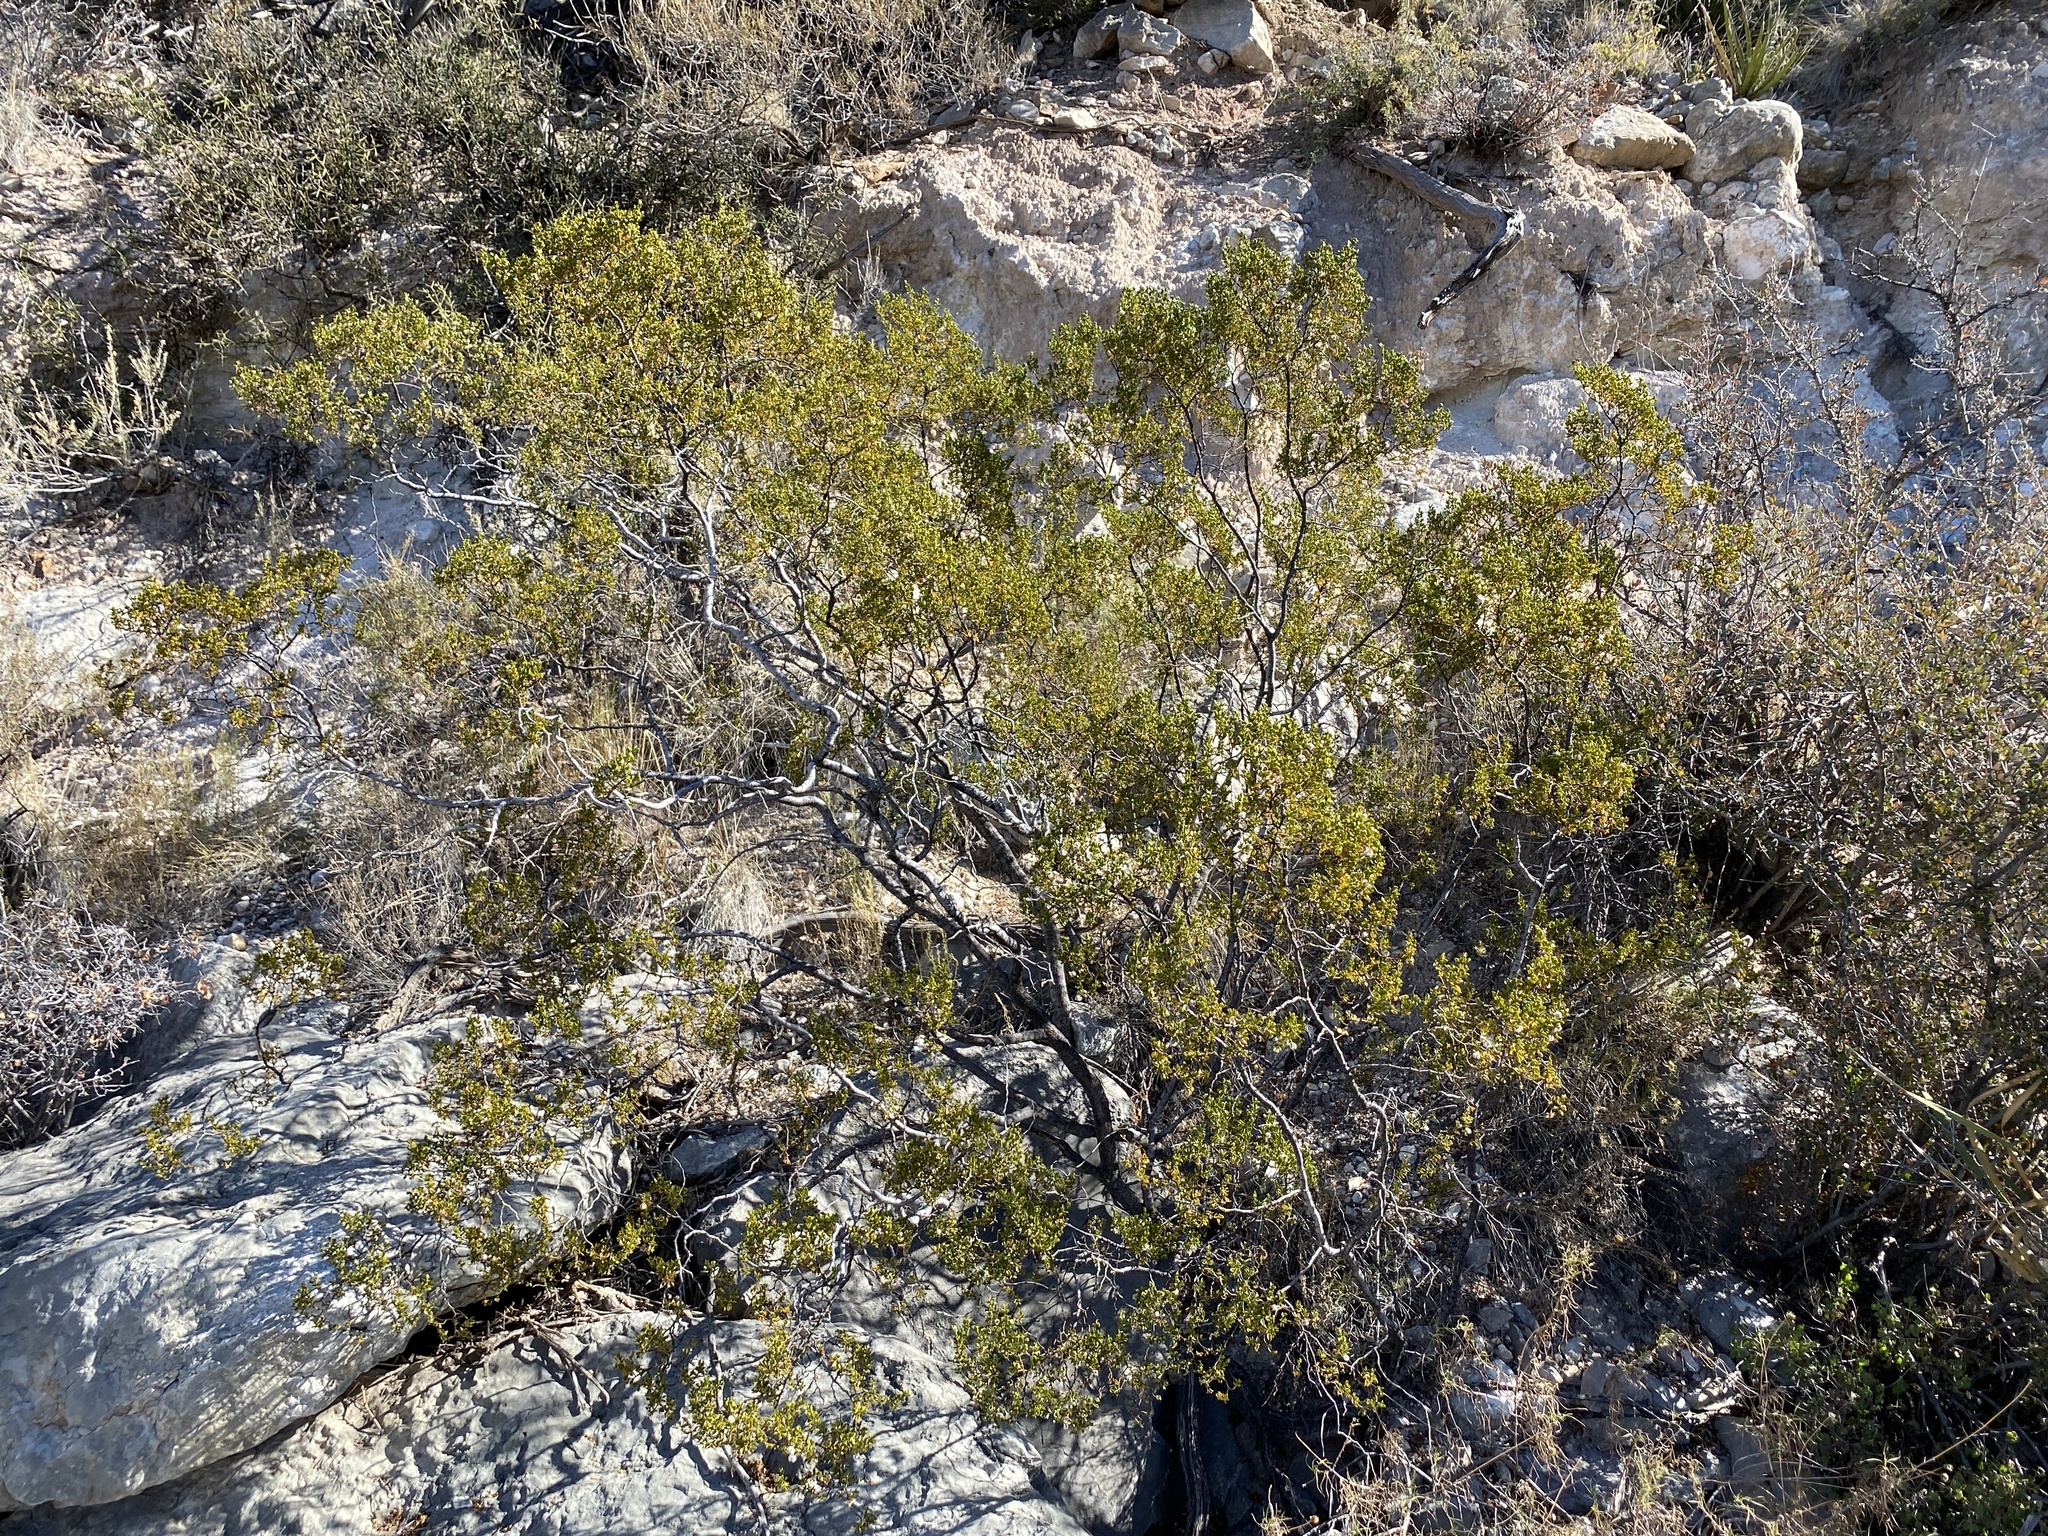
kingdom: Plantae
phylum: Tracheophyta
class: Magnoliopsida
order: Zygophyllales
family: Zygophyllaceae
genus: Larrea
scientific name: Larrea tridentata
